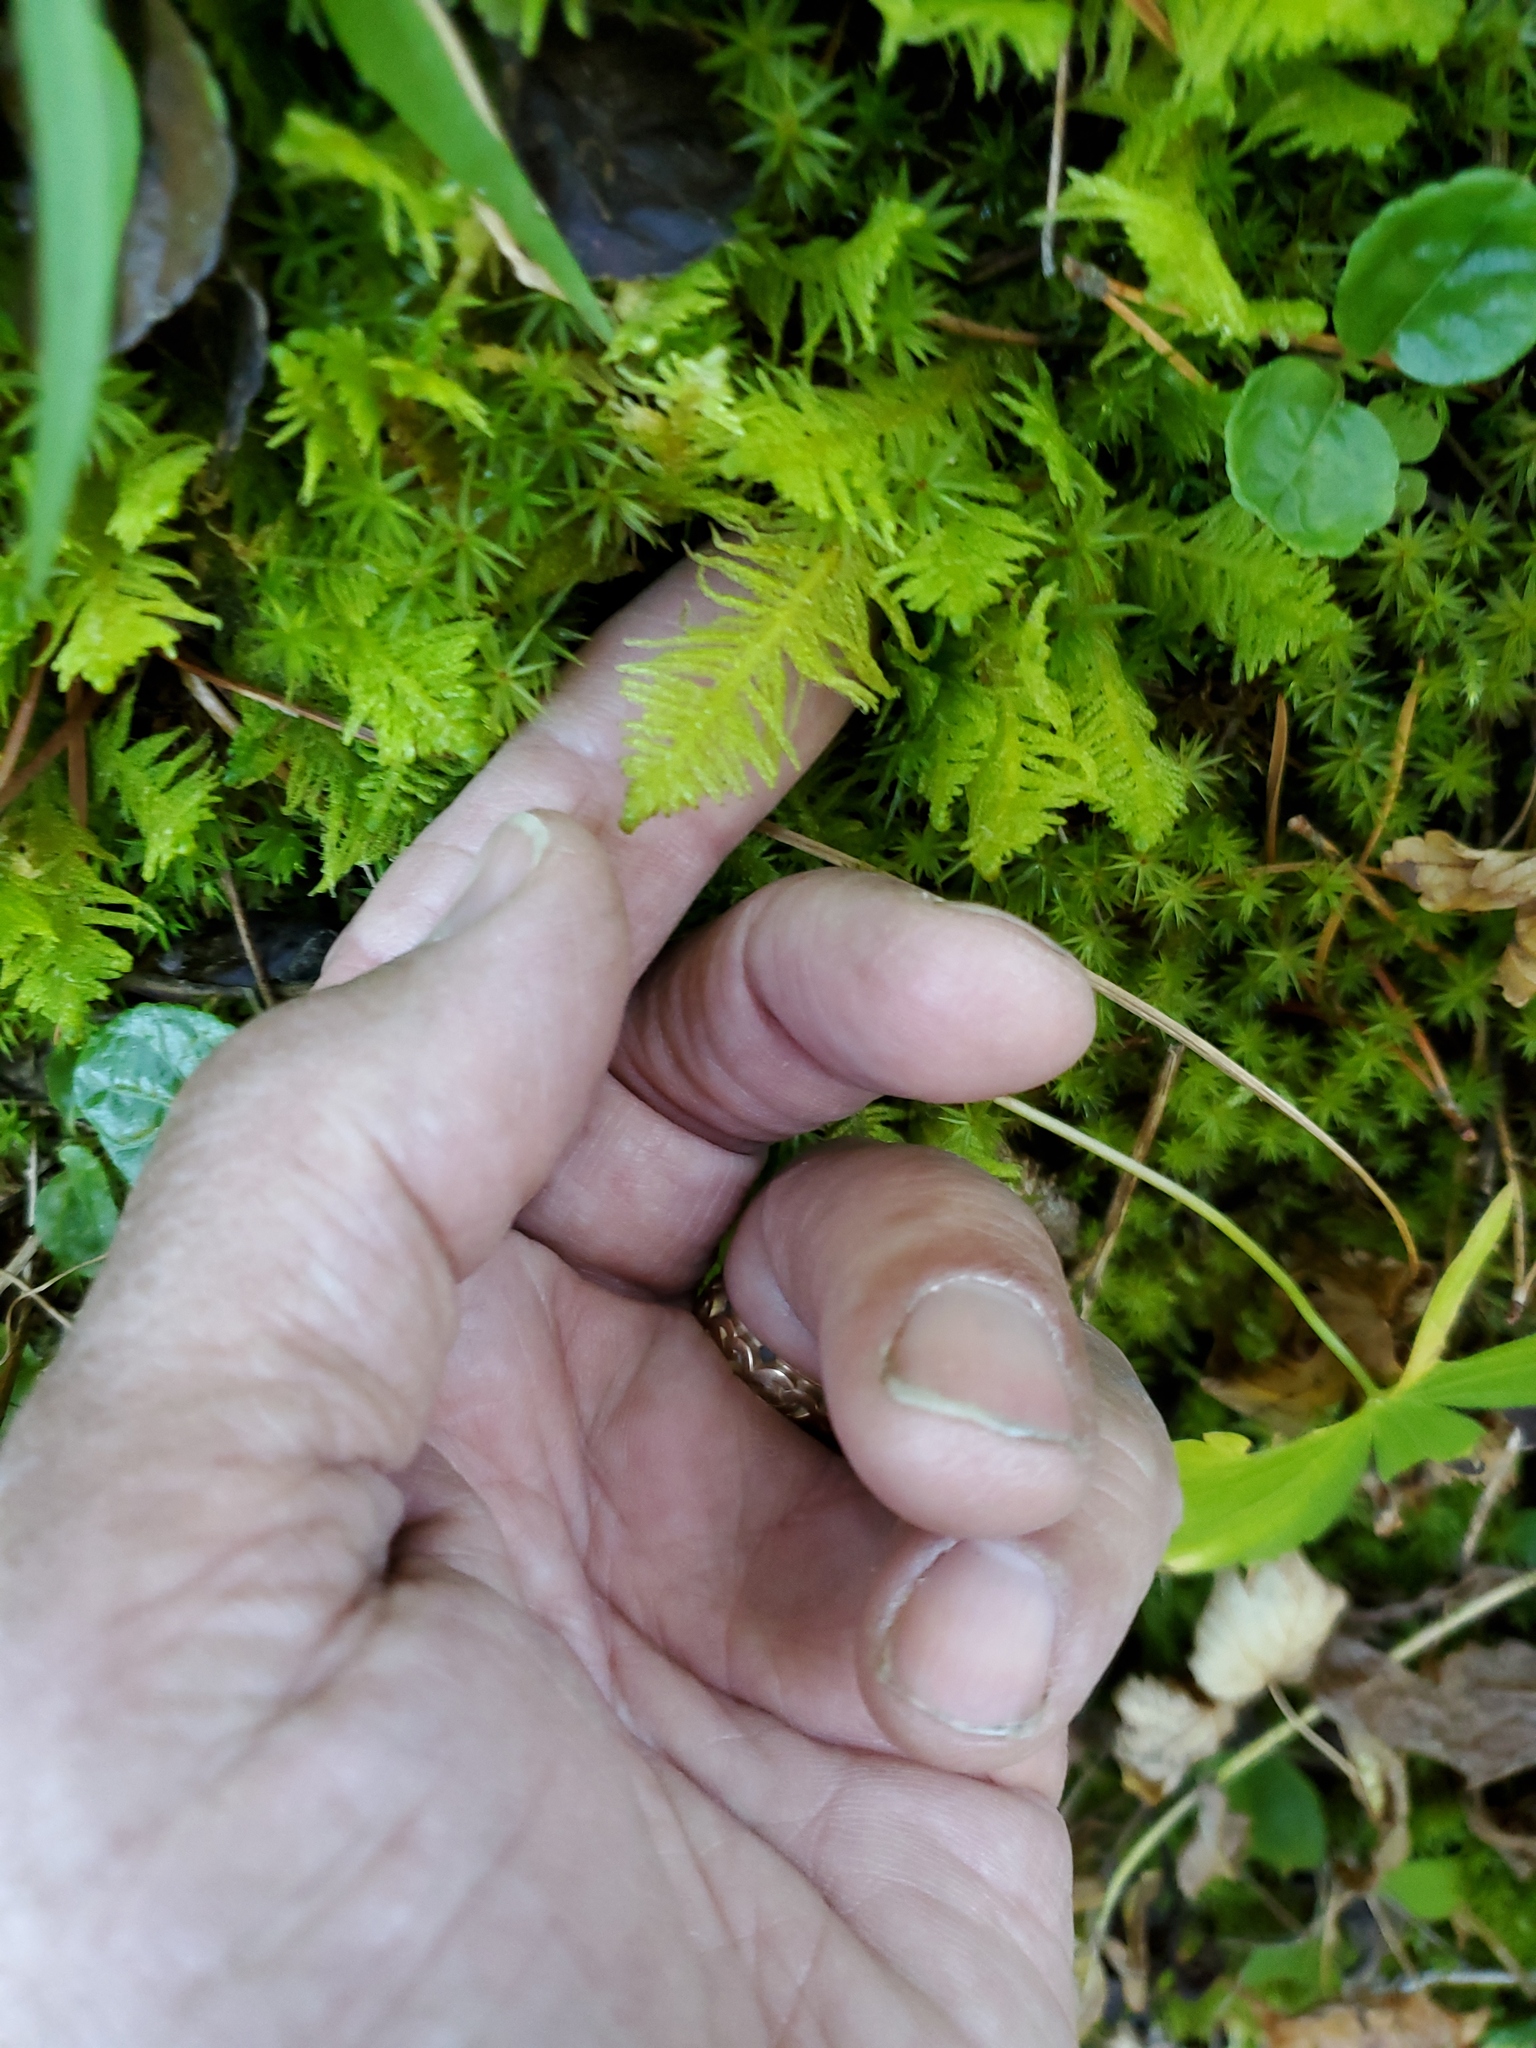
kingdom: Plantae
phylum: Bryophyta
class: Bryopsida
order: Hypnales
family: Pylaisiaceae
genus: Ptilium
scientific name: Ptilium crista-castrensis
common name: Knight's plume moss
